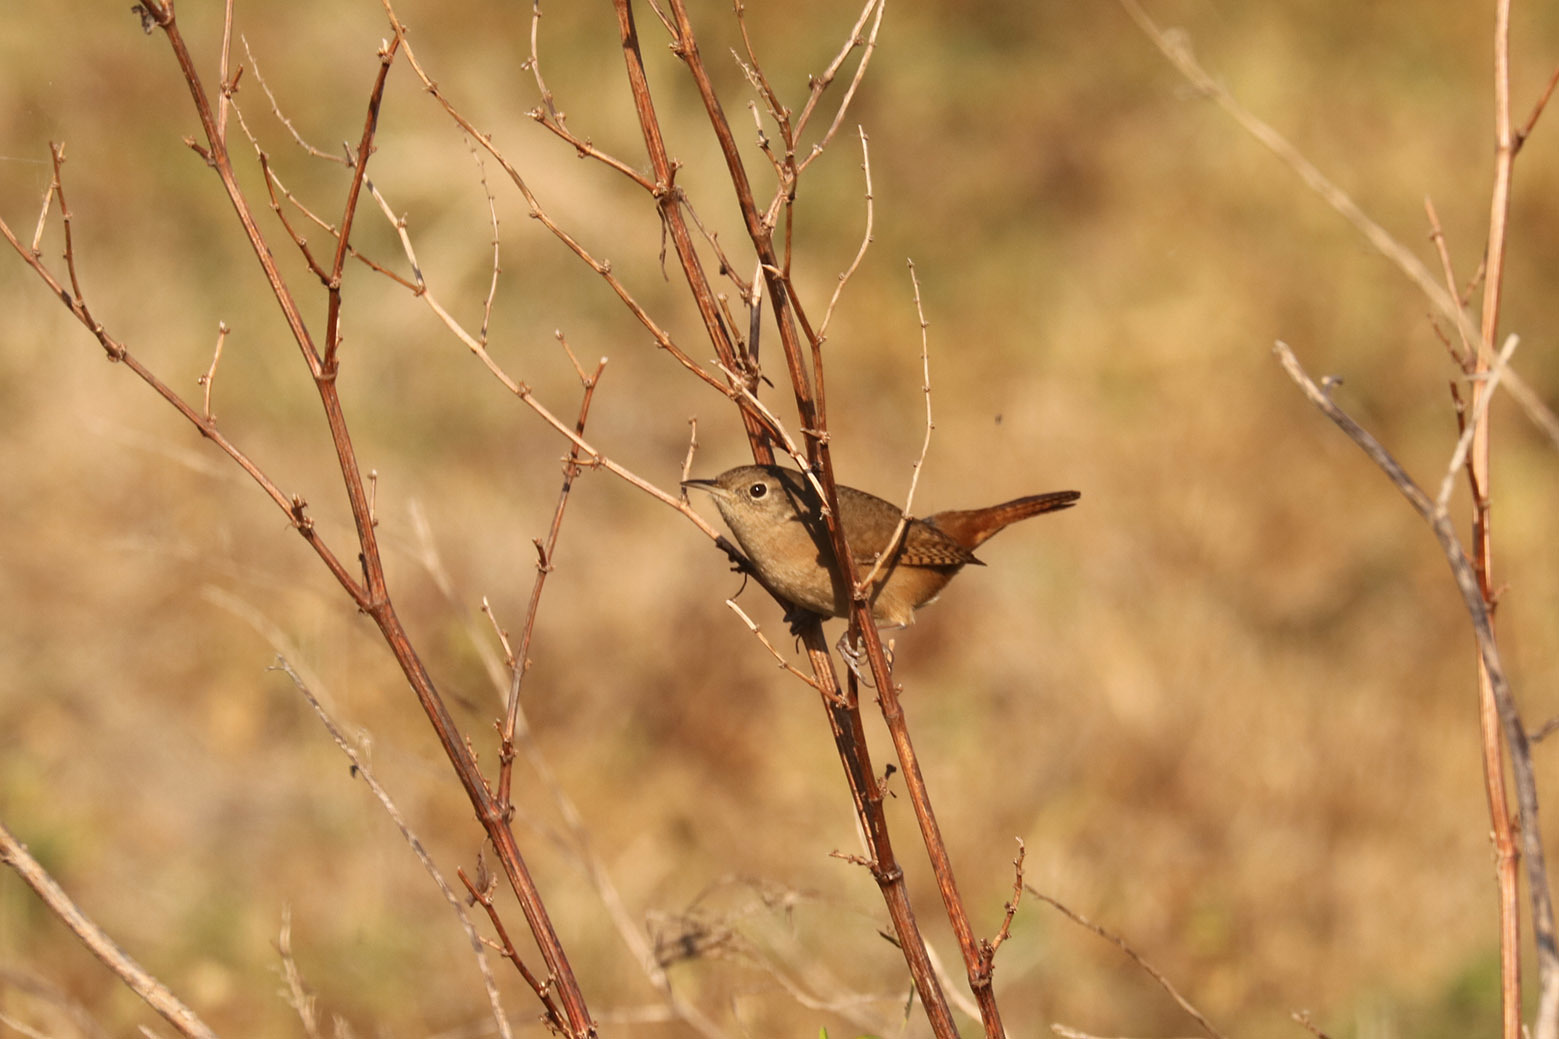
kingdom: Animalia
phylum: Chordata
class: Aves
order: Passeriformes
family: Troglodytidae
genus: Troglodytes
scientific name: Troglodytes aedon
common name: House wren
